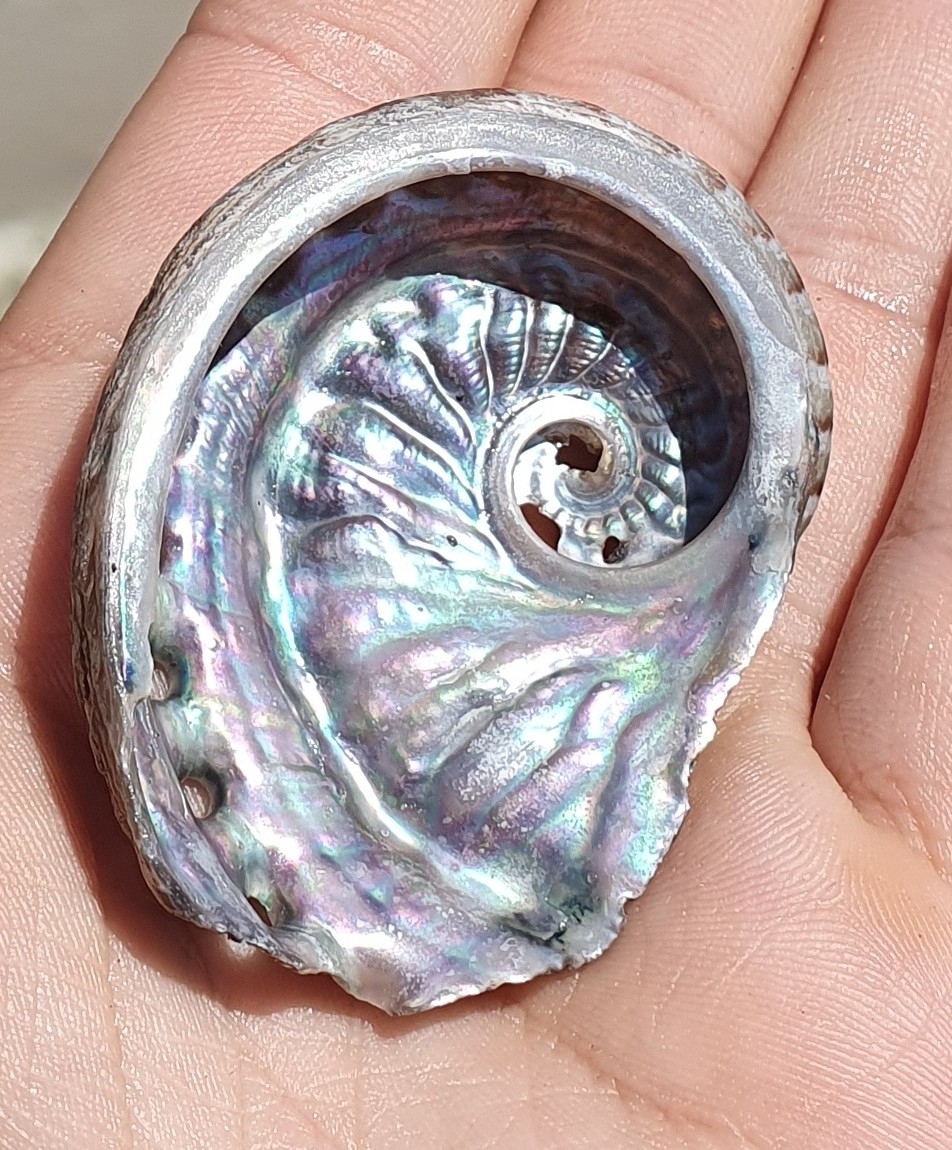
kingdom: Animalia
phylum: Mollusca
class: Gastropoda
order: Lepetellida
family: Haliotidae
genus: Haliotis
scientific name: Haliotis scalaris
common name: Staircase abalone
